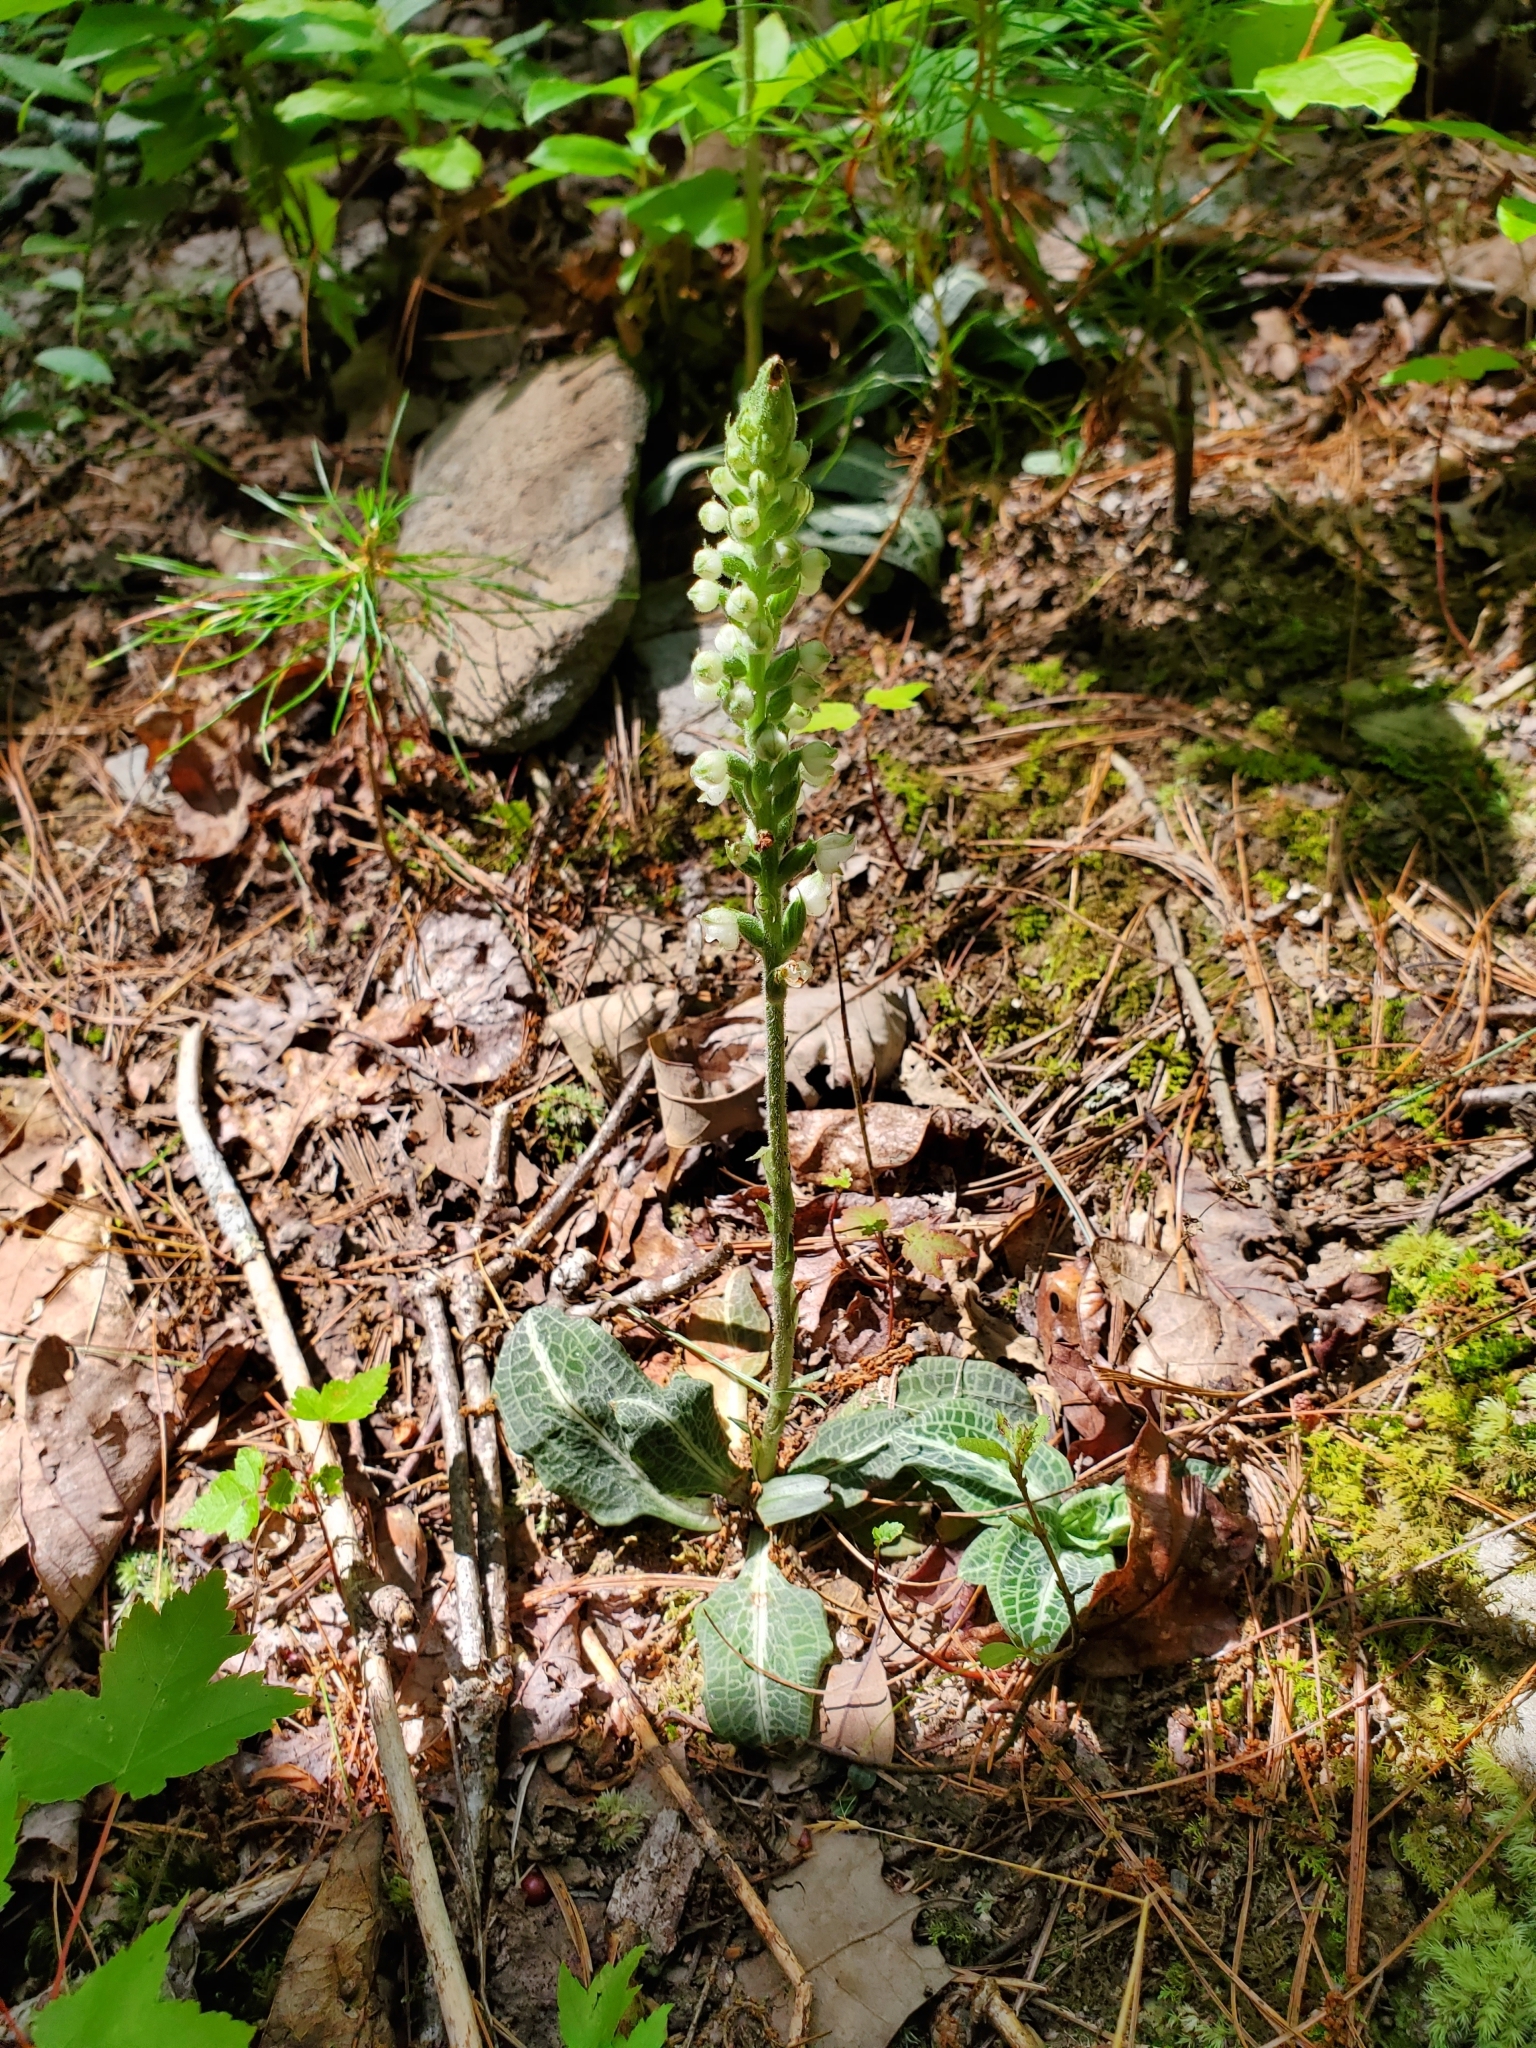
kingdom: Plantae
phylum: Tracheophyta
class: Liliopsida
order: Asparagales
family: Orchidaceae
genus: Goodyera
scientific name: Goodyera pubescens
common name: Downy rattlesnake-plantain
